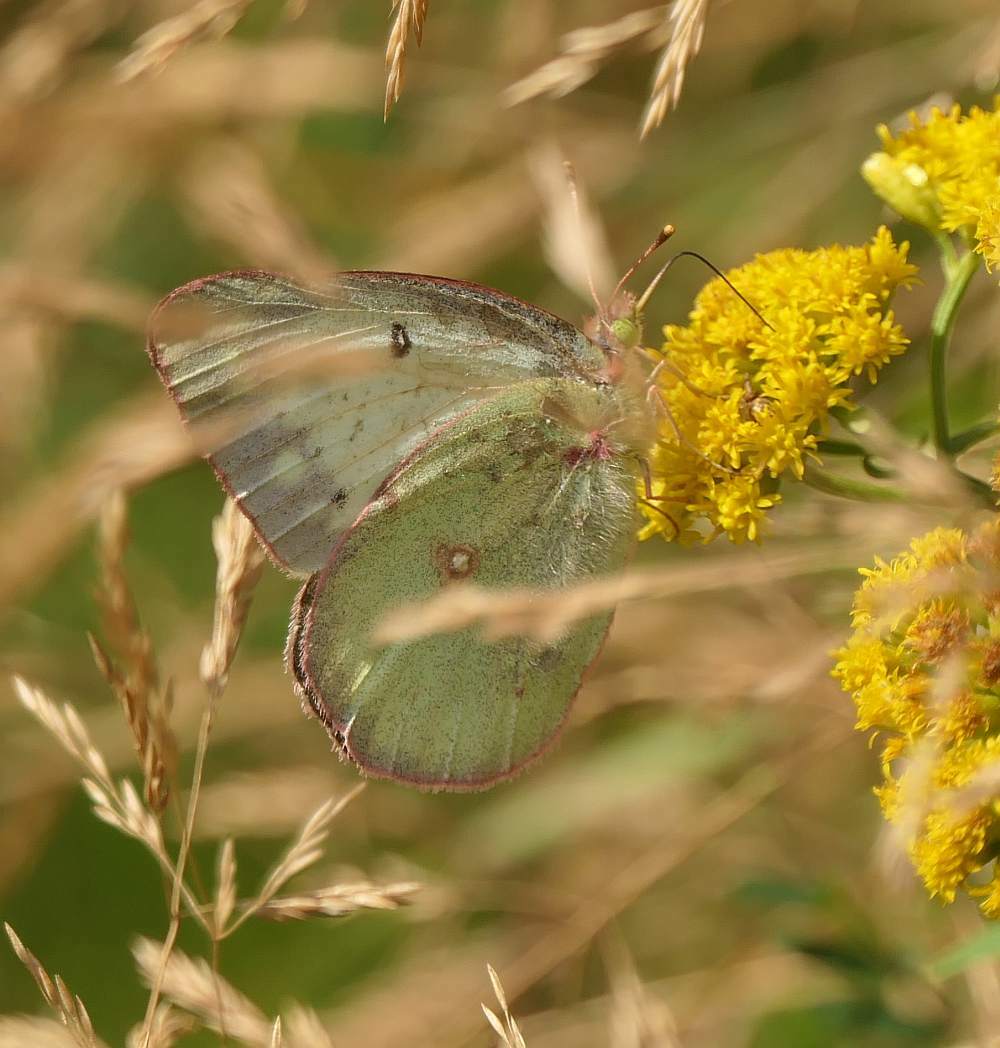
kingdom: Animalia
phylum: Arthropoda
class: Insecta
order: Lepidoptera
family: Pieridae
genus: Colias
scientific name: Colias philodice
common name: Clouded sulphur
